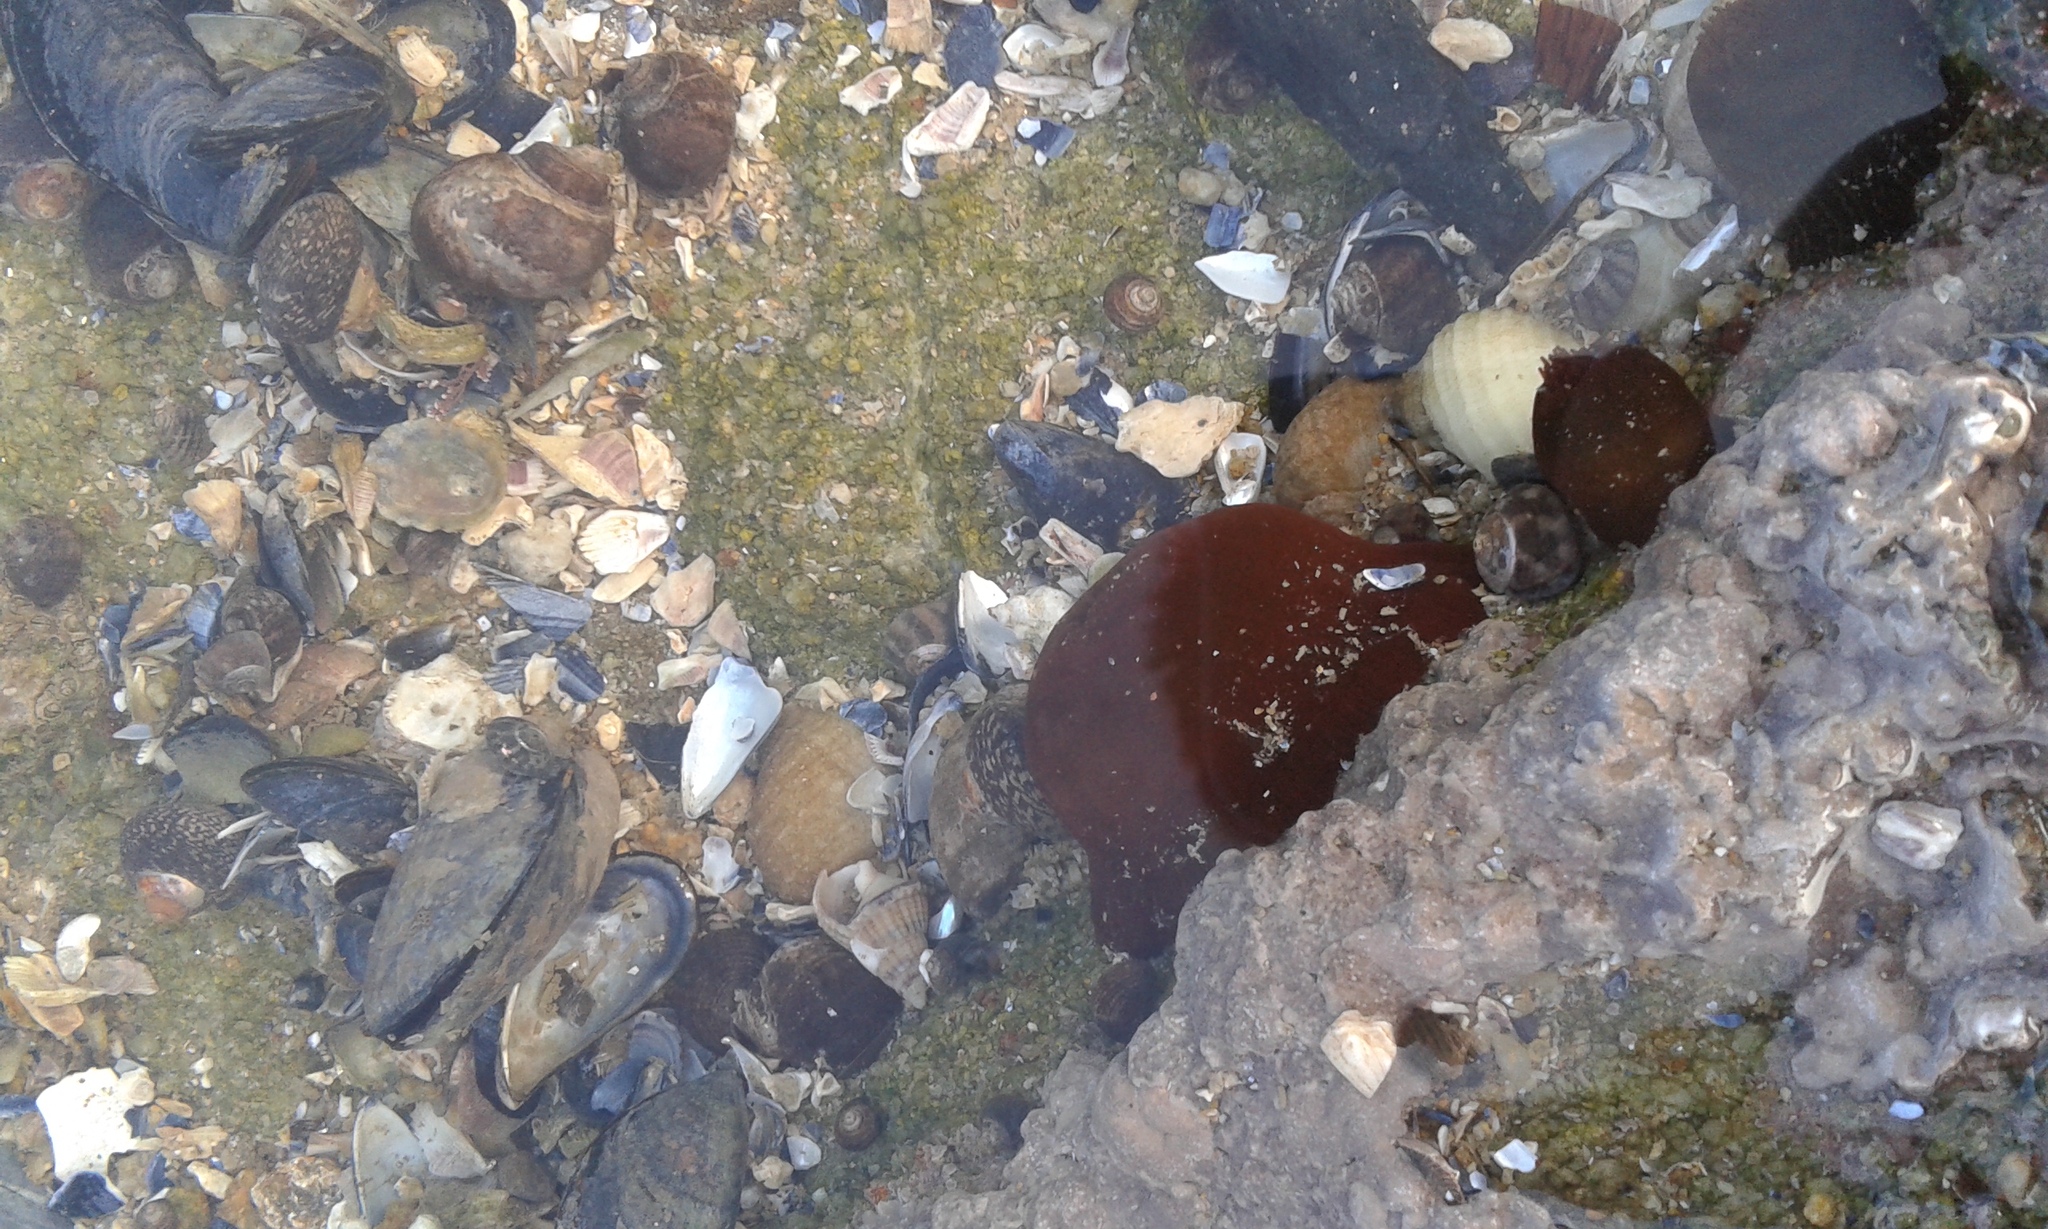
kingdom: Animalia
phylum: Cnidaria
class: Anthozoa
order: Actiniaria
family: Actiniidae
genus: Actinia
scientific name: Actinia equina
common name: Beadlet anemone
